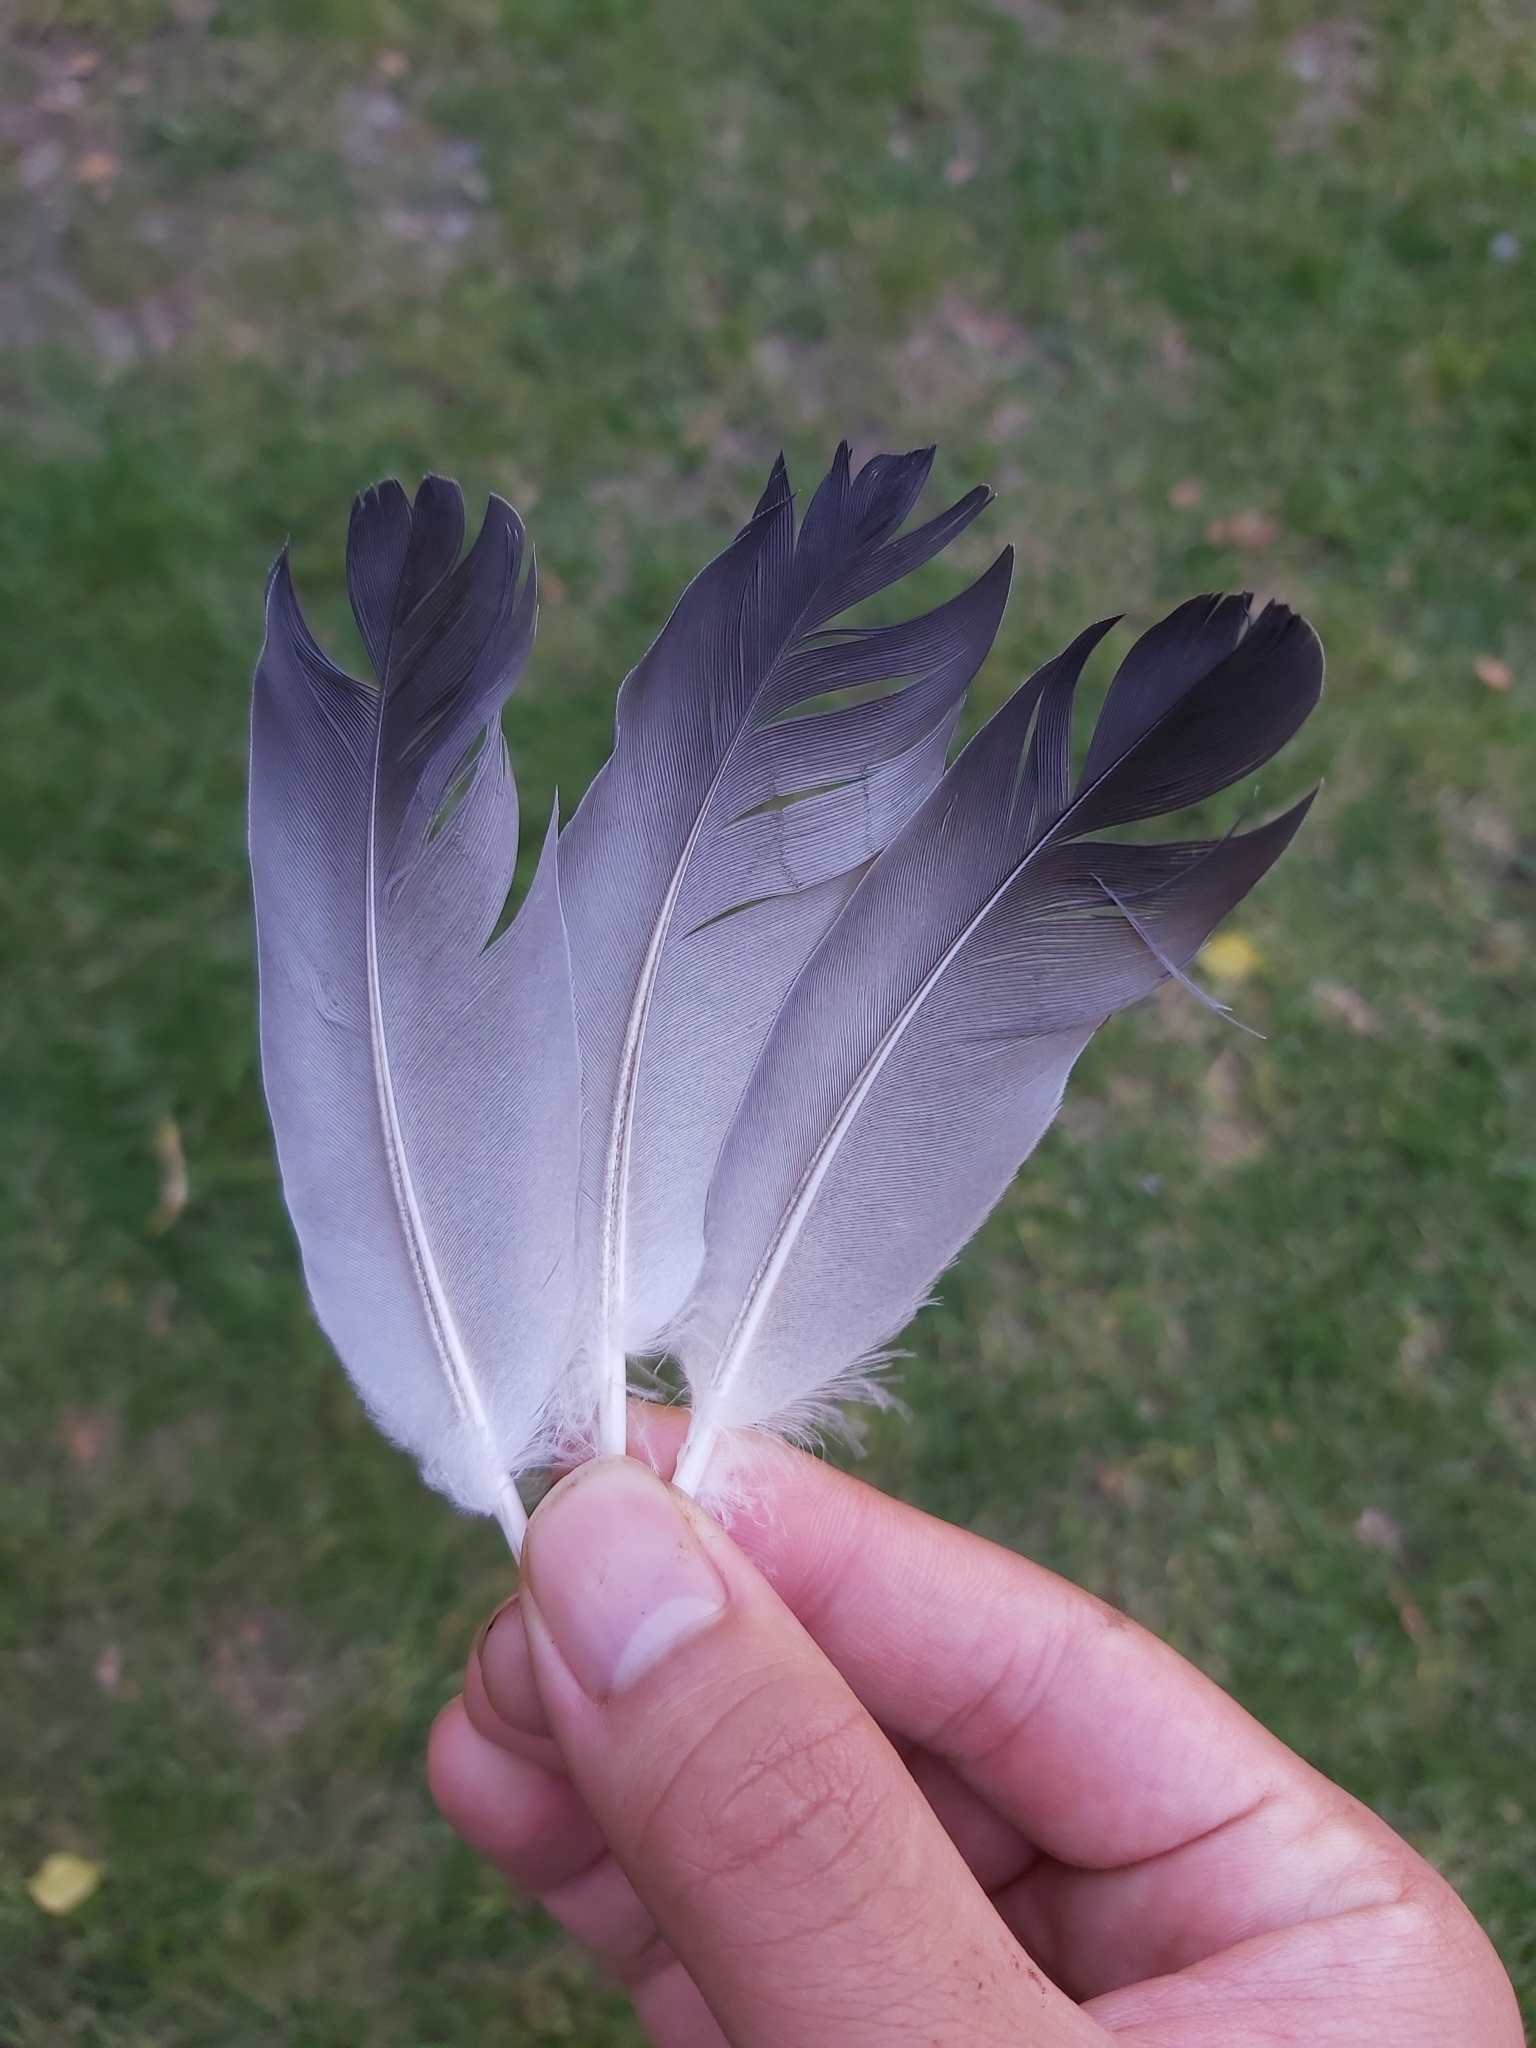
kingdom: Animalia
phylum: Chordata
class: Aves
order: Columbiformes
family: Columbidae
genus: Columba
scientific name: Columba livia
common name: Rock pigeon
